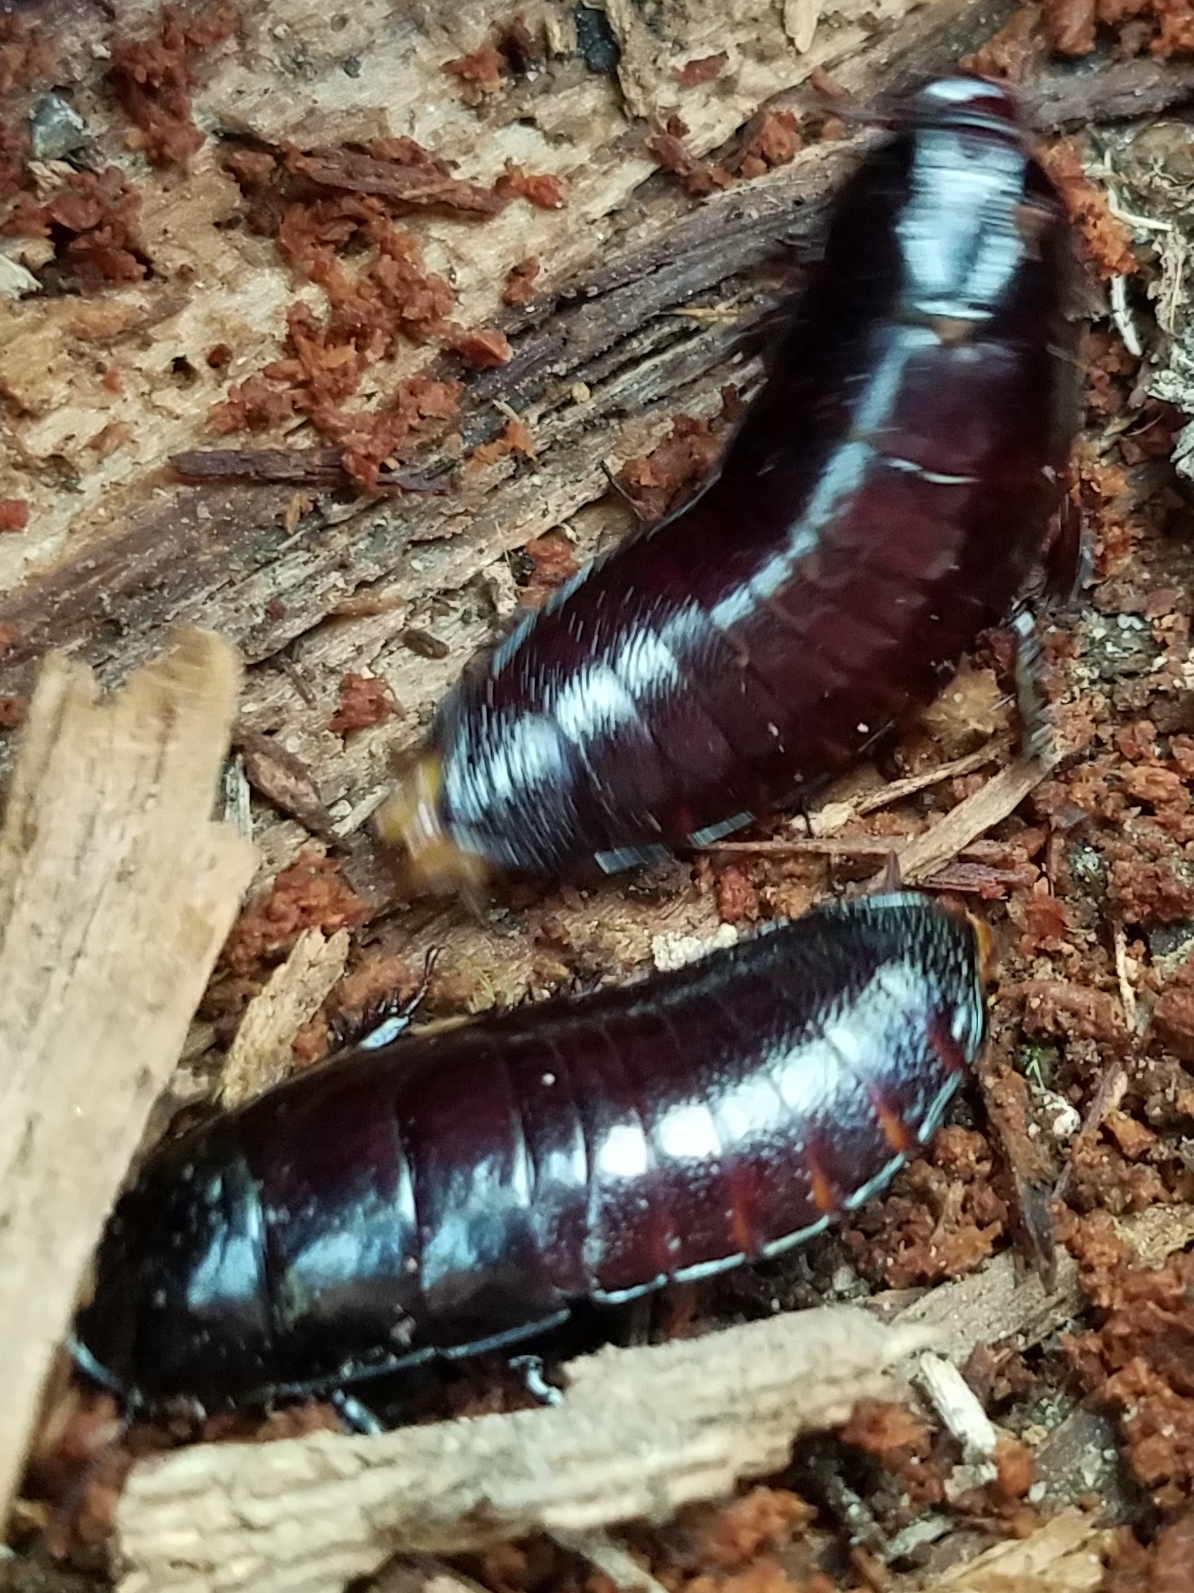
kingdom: Animalia
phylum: Arthropoda
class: Insecta
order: Blattodea
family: Cryptocercidae
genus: Cryptocercus
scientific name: Cryptocercus wrighti
